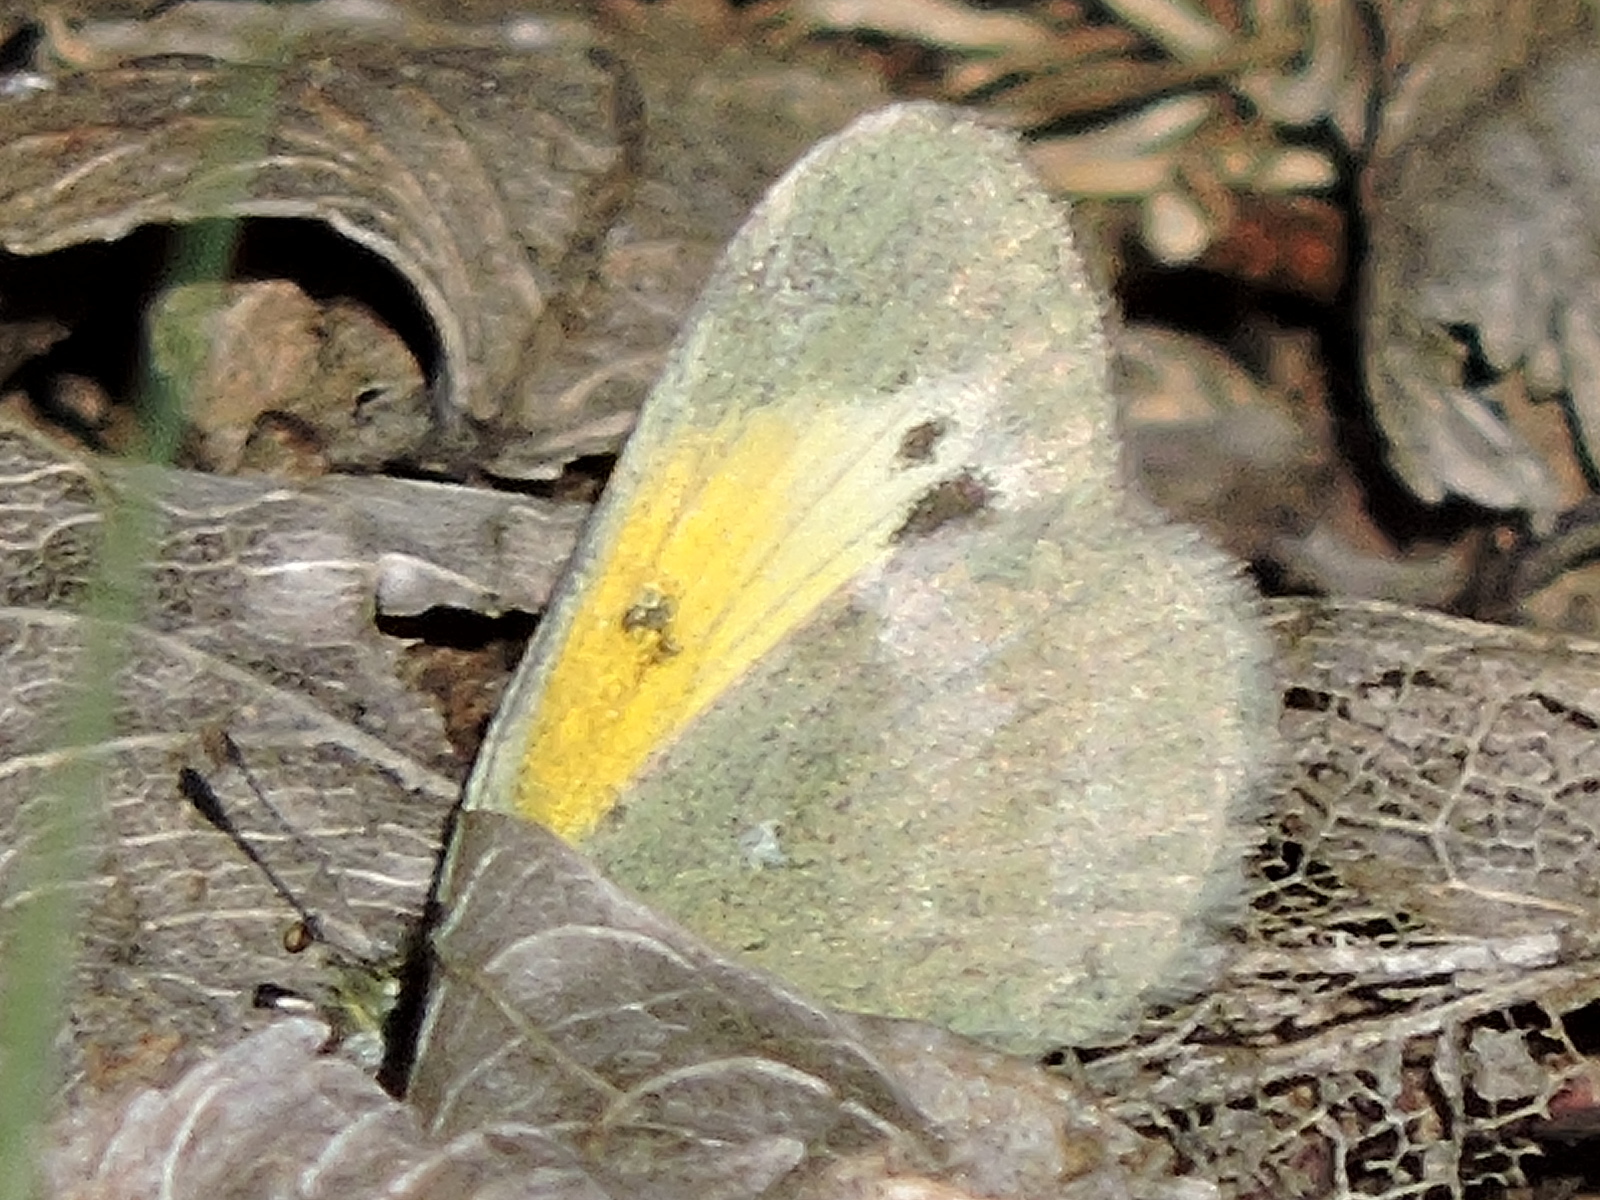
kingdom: Animalia
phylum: Arthropoda
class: Insecta
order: Lepidoptera
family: Pieridae
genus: Nathalis
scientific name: Nathalis iole
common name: Dainty sulphur
